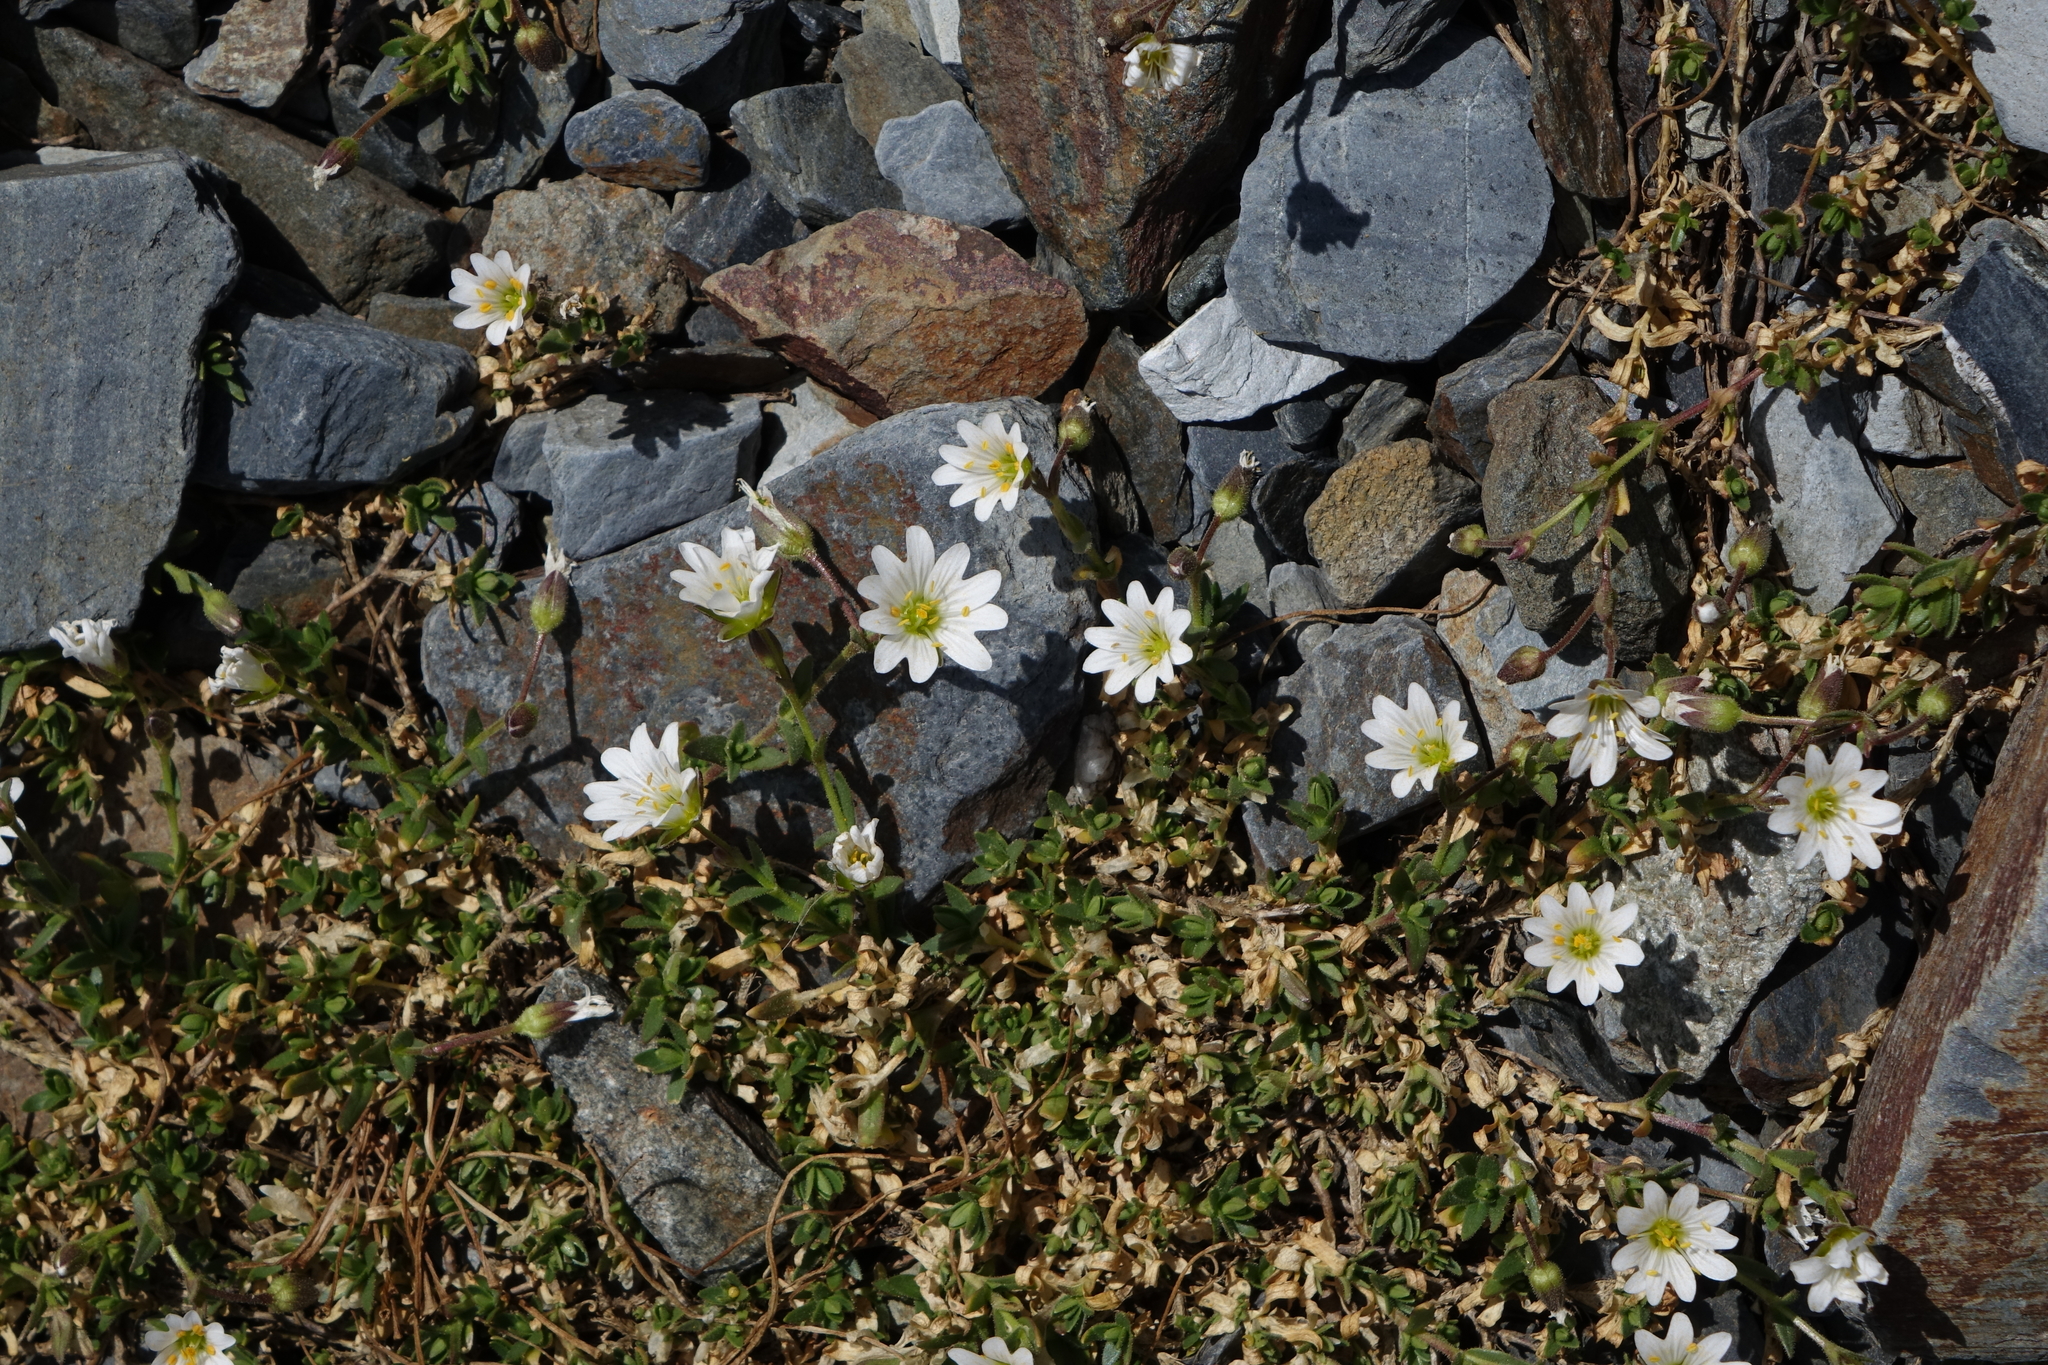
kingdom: Plantae
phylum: Tracheophyta
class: Magnoliopsida
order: Caryophyllales
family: Caryophyllaceae
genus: Dichodon
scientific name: Dichodon cerastoides
